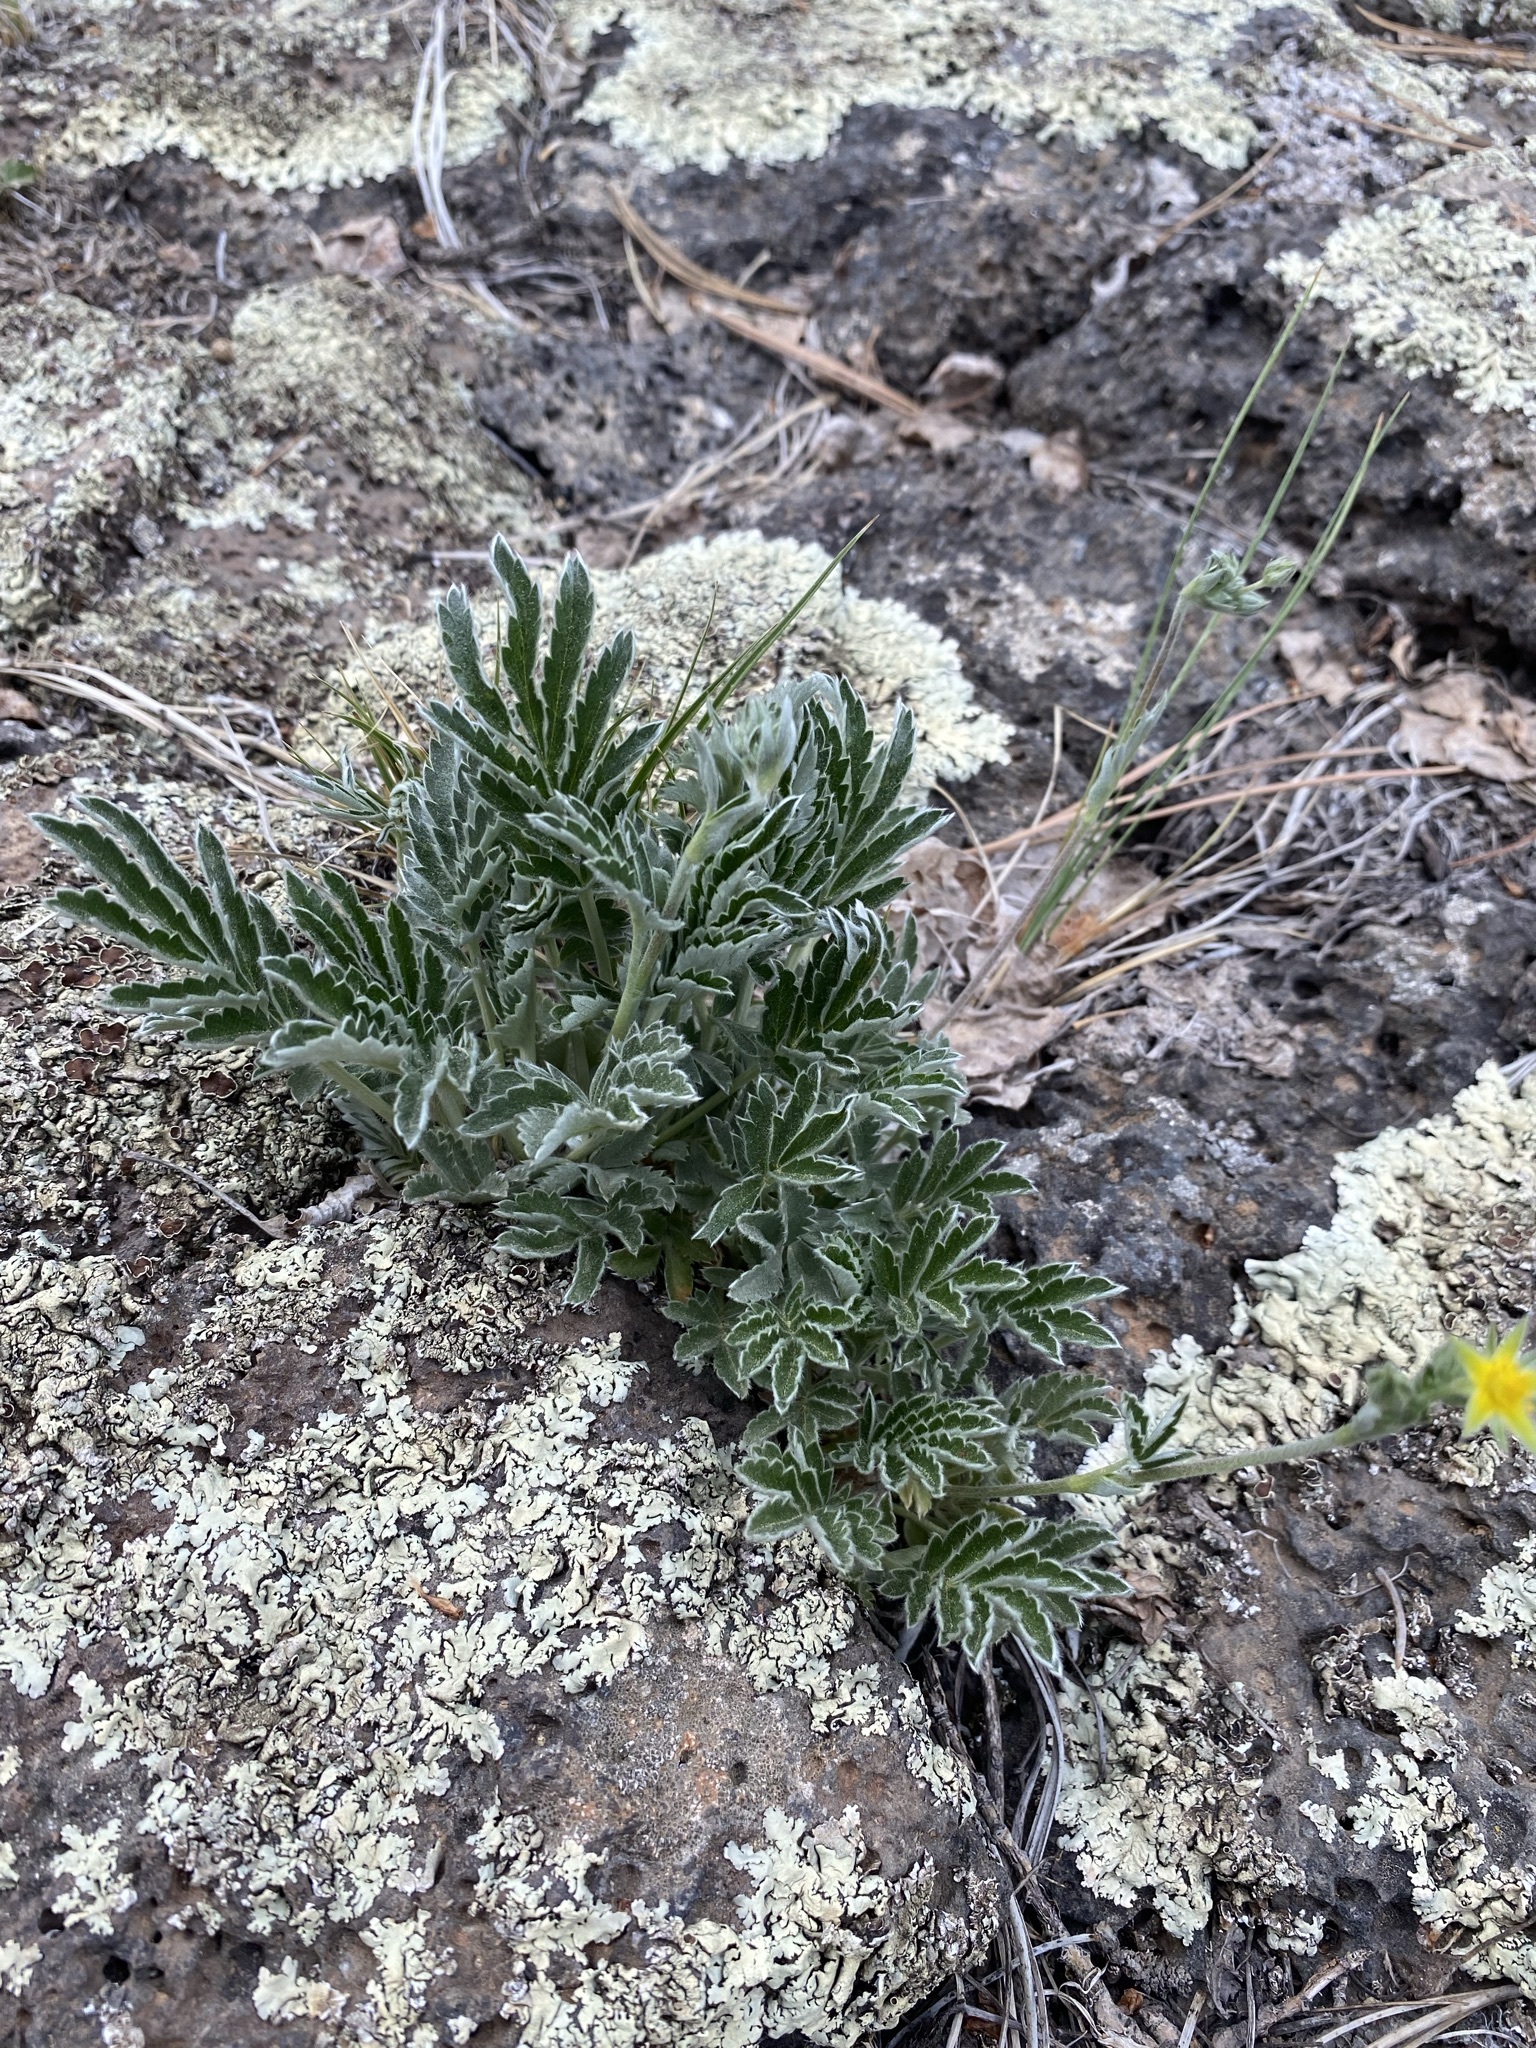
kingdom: Plantae
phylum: Tracheophyta
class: Magnoliopsida
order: Rosales
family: Rosaceae
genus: Potentilla
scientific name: Potentilla hippiana
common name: Woolly cinquefoil
